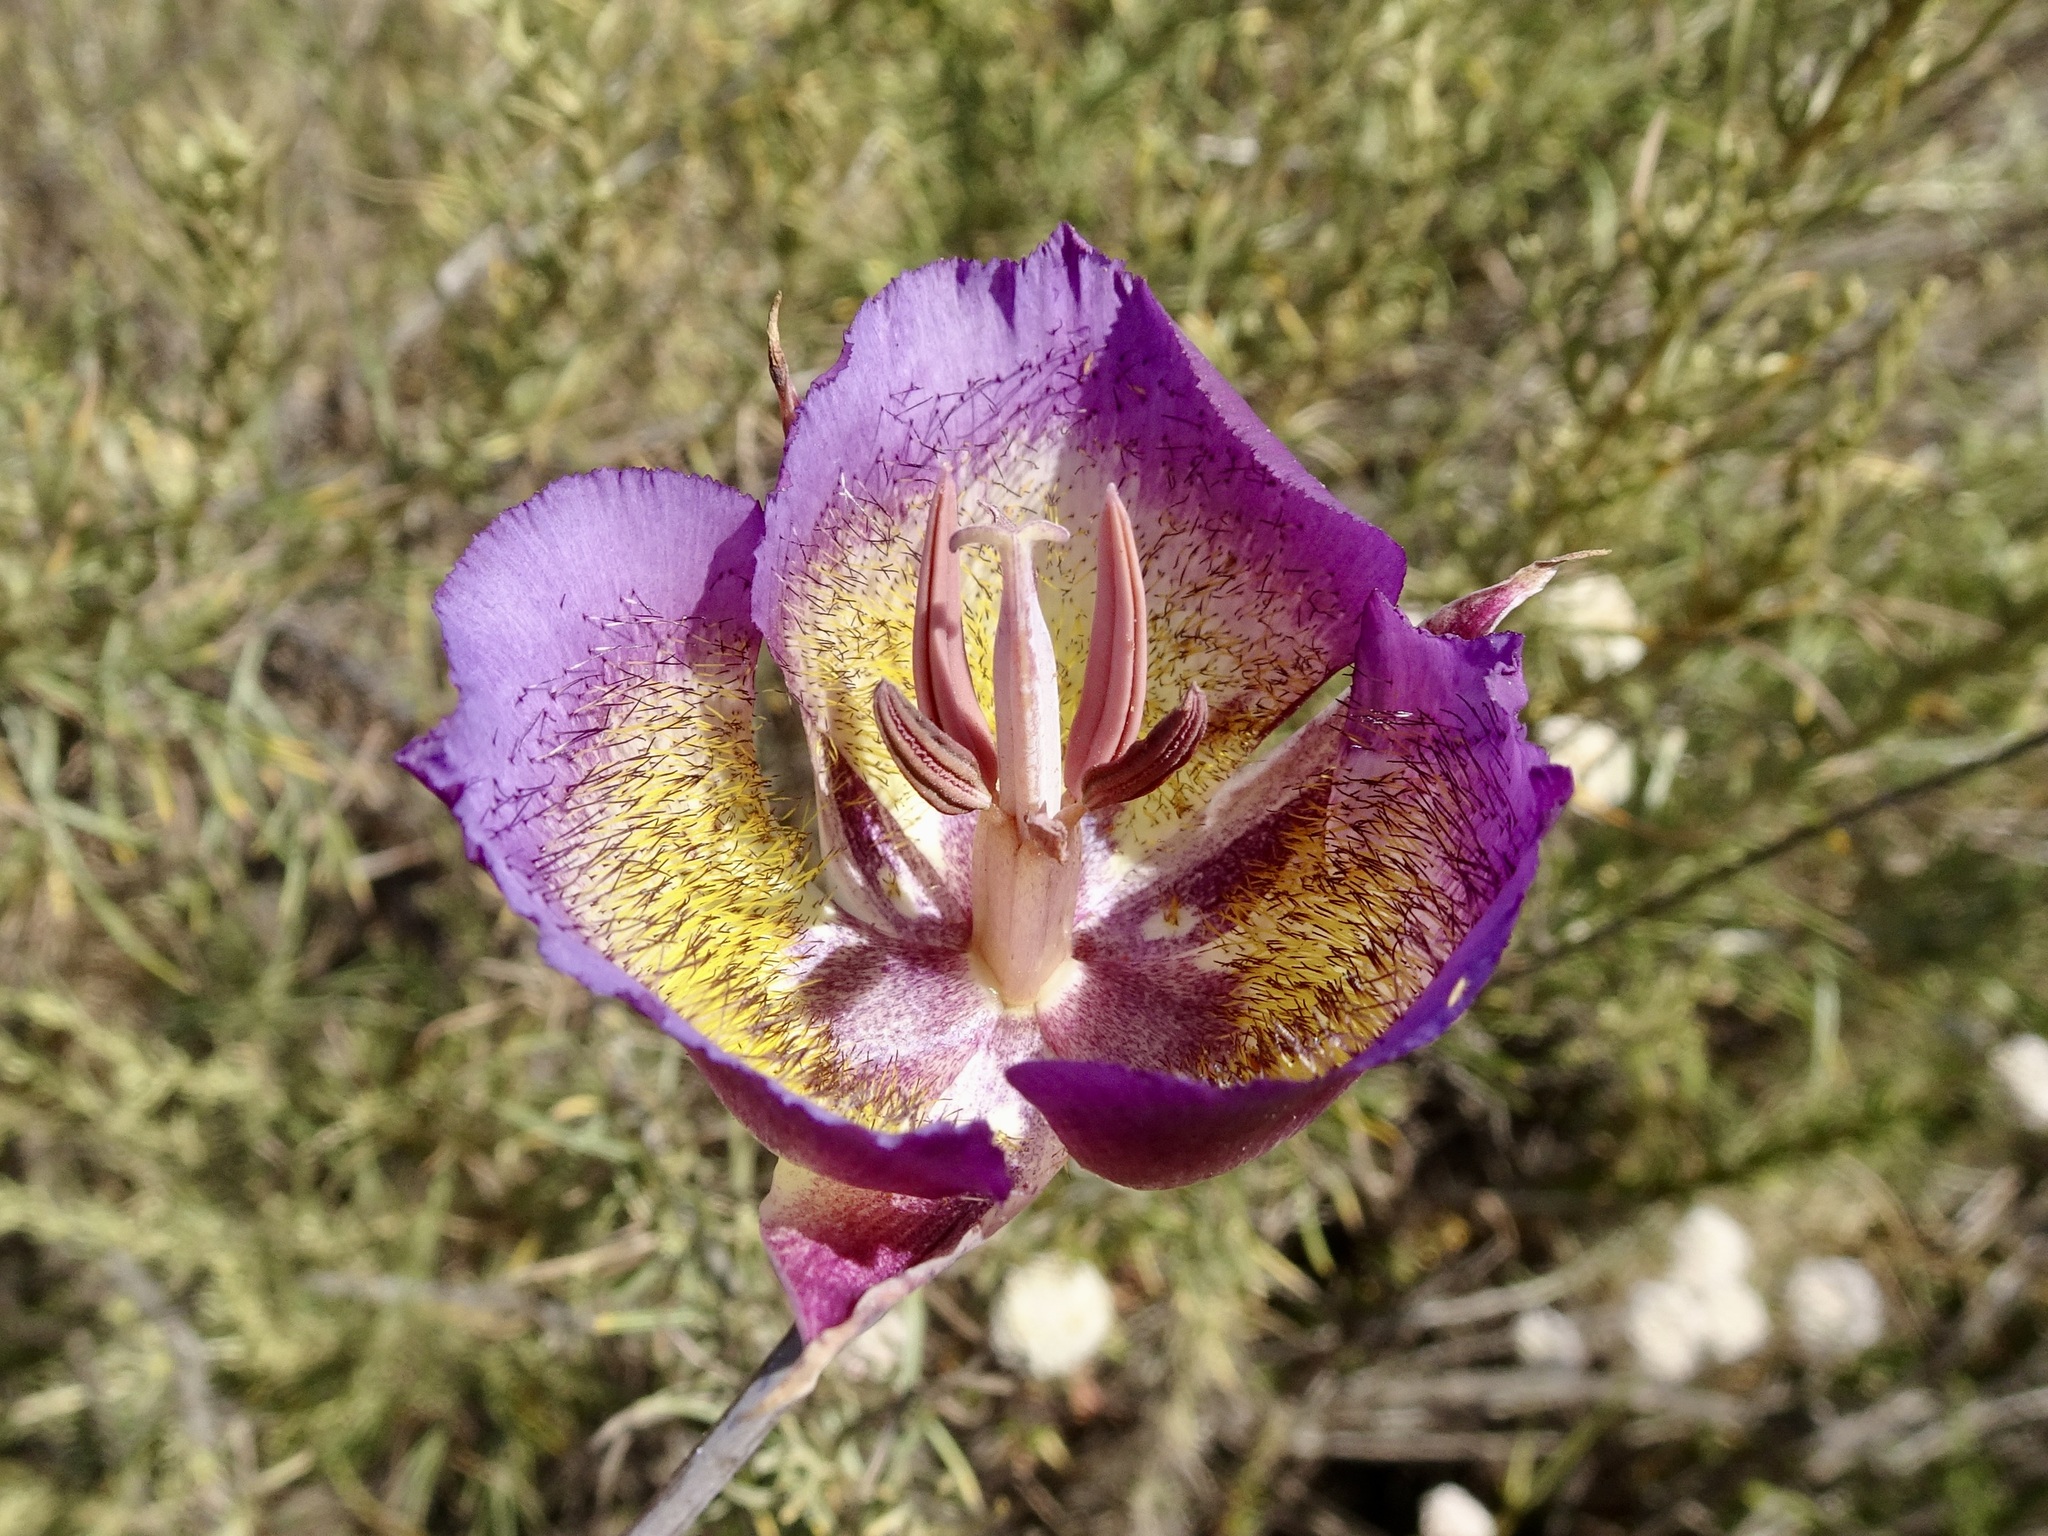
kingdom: Plantae
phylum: Tracheophyta
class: Liliopsida
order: Liliales
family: Liliaceae
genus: Calochortus
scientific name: Calochortus plummerae
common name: Plummer's mariposa-lily
